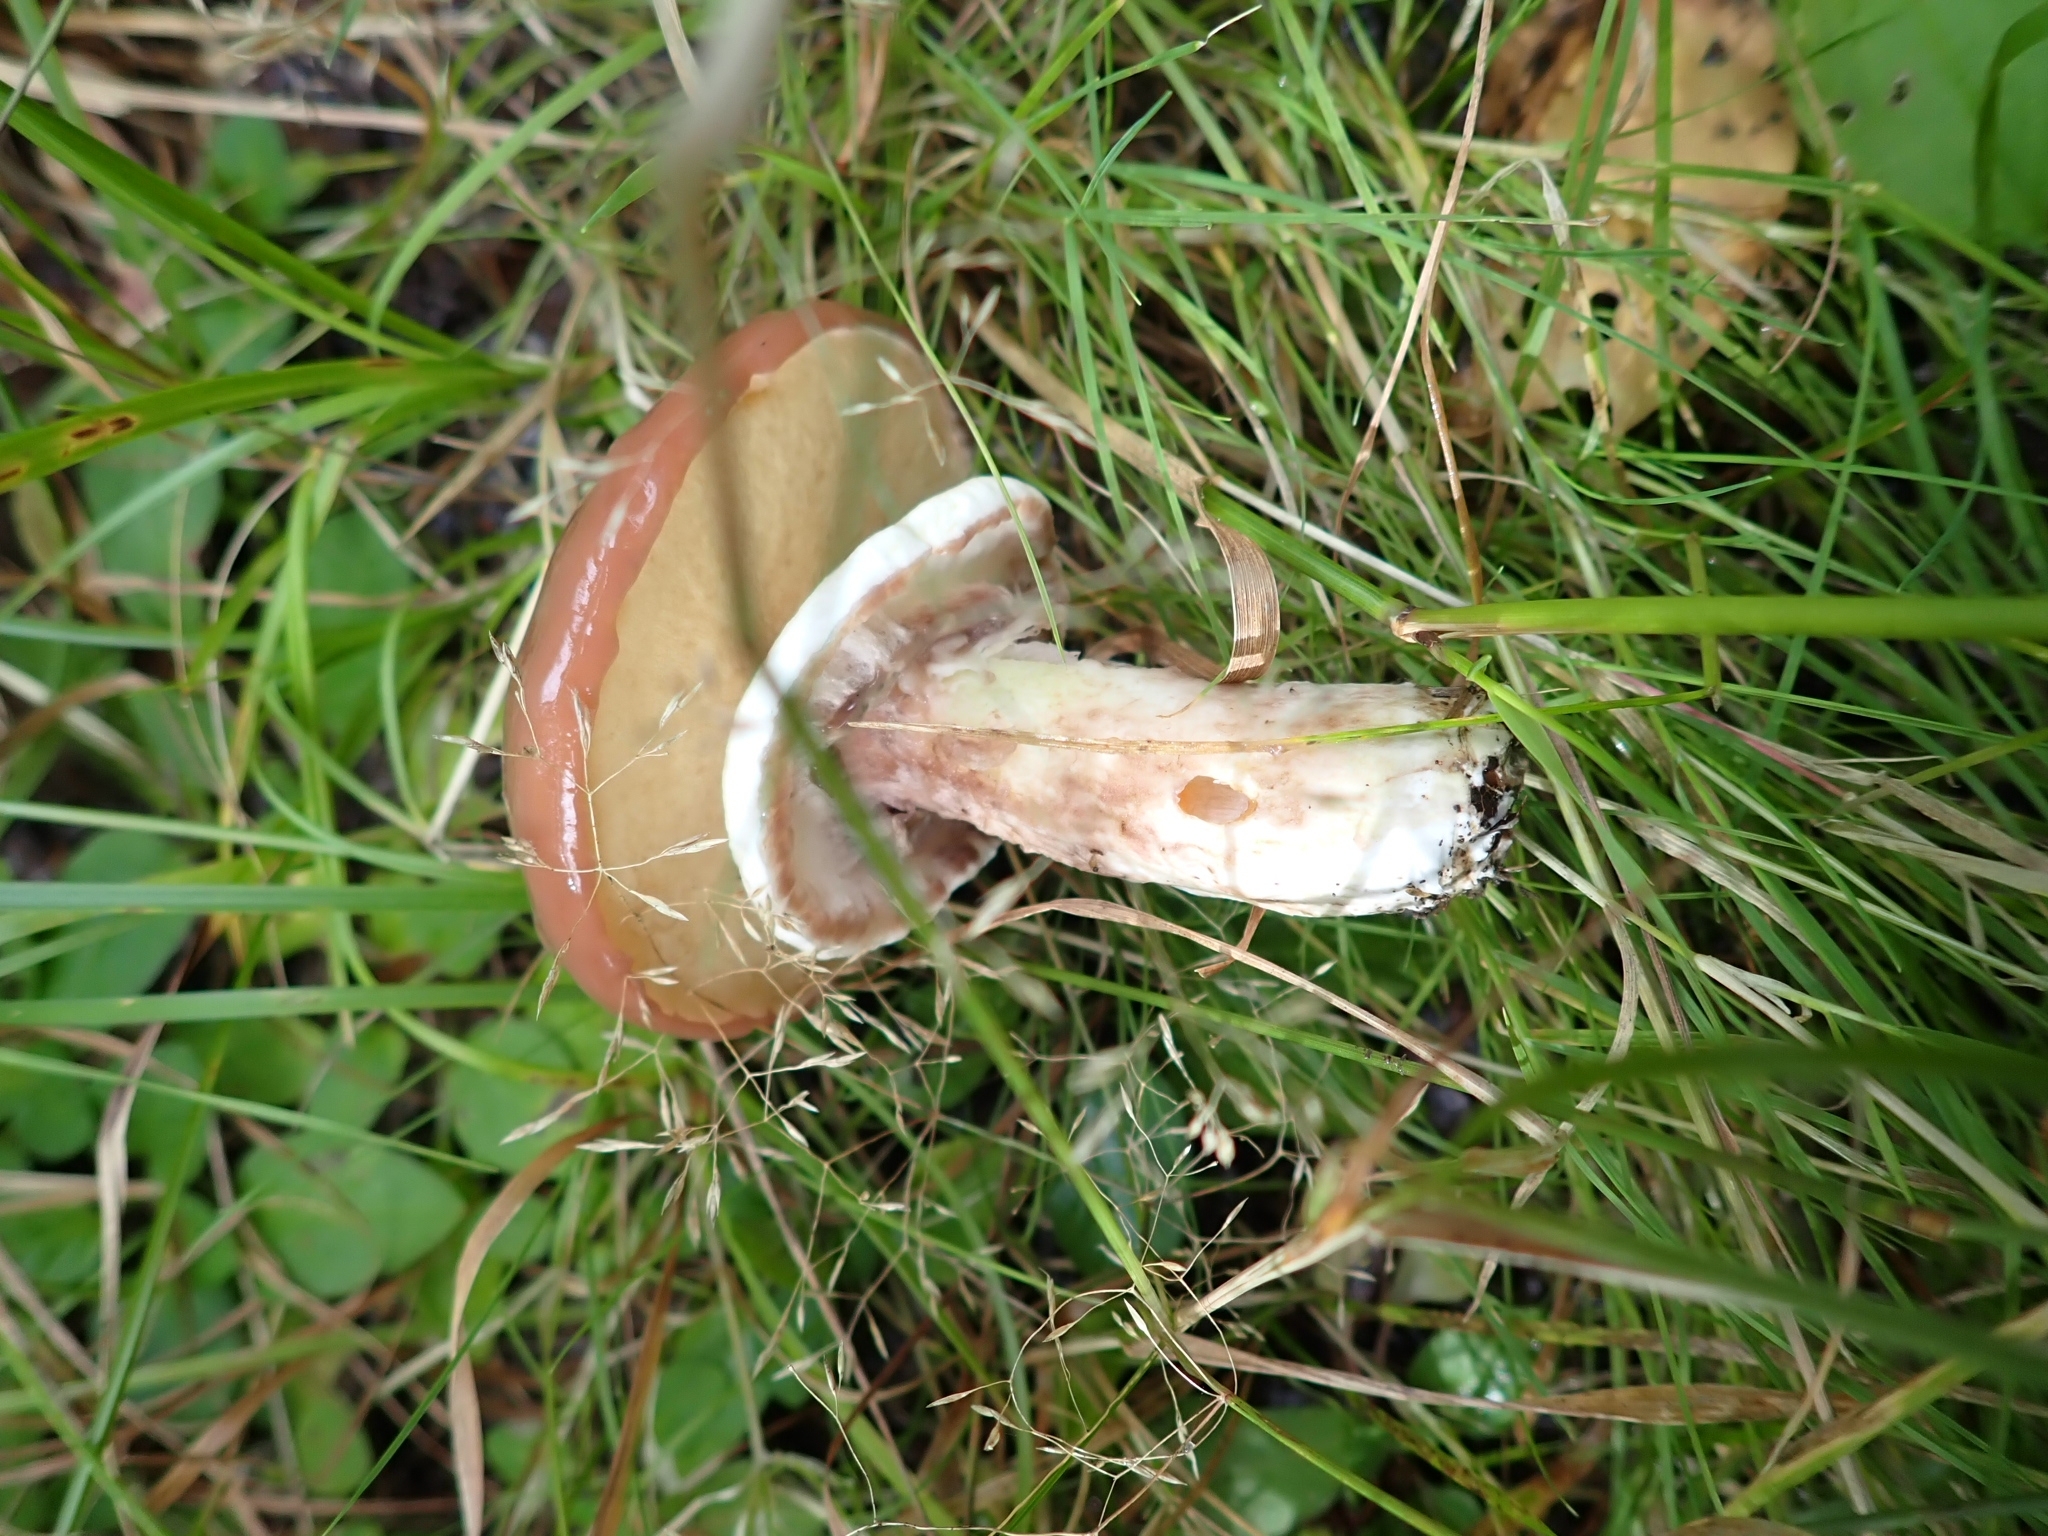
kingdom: Fungi
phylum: Basidiomycota
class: Agaricomycetes
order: Boletales
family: Suillaceae
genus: Suillus
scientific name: Suillus luteus
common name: Slippery jack
